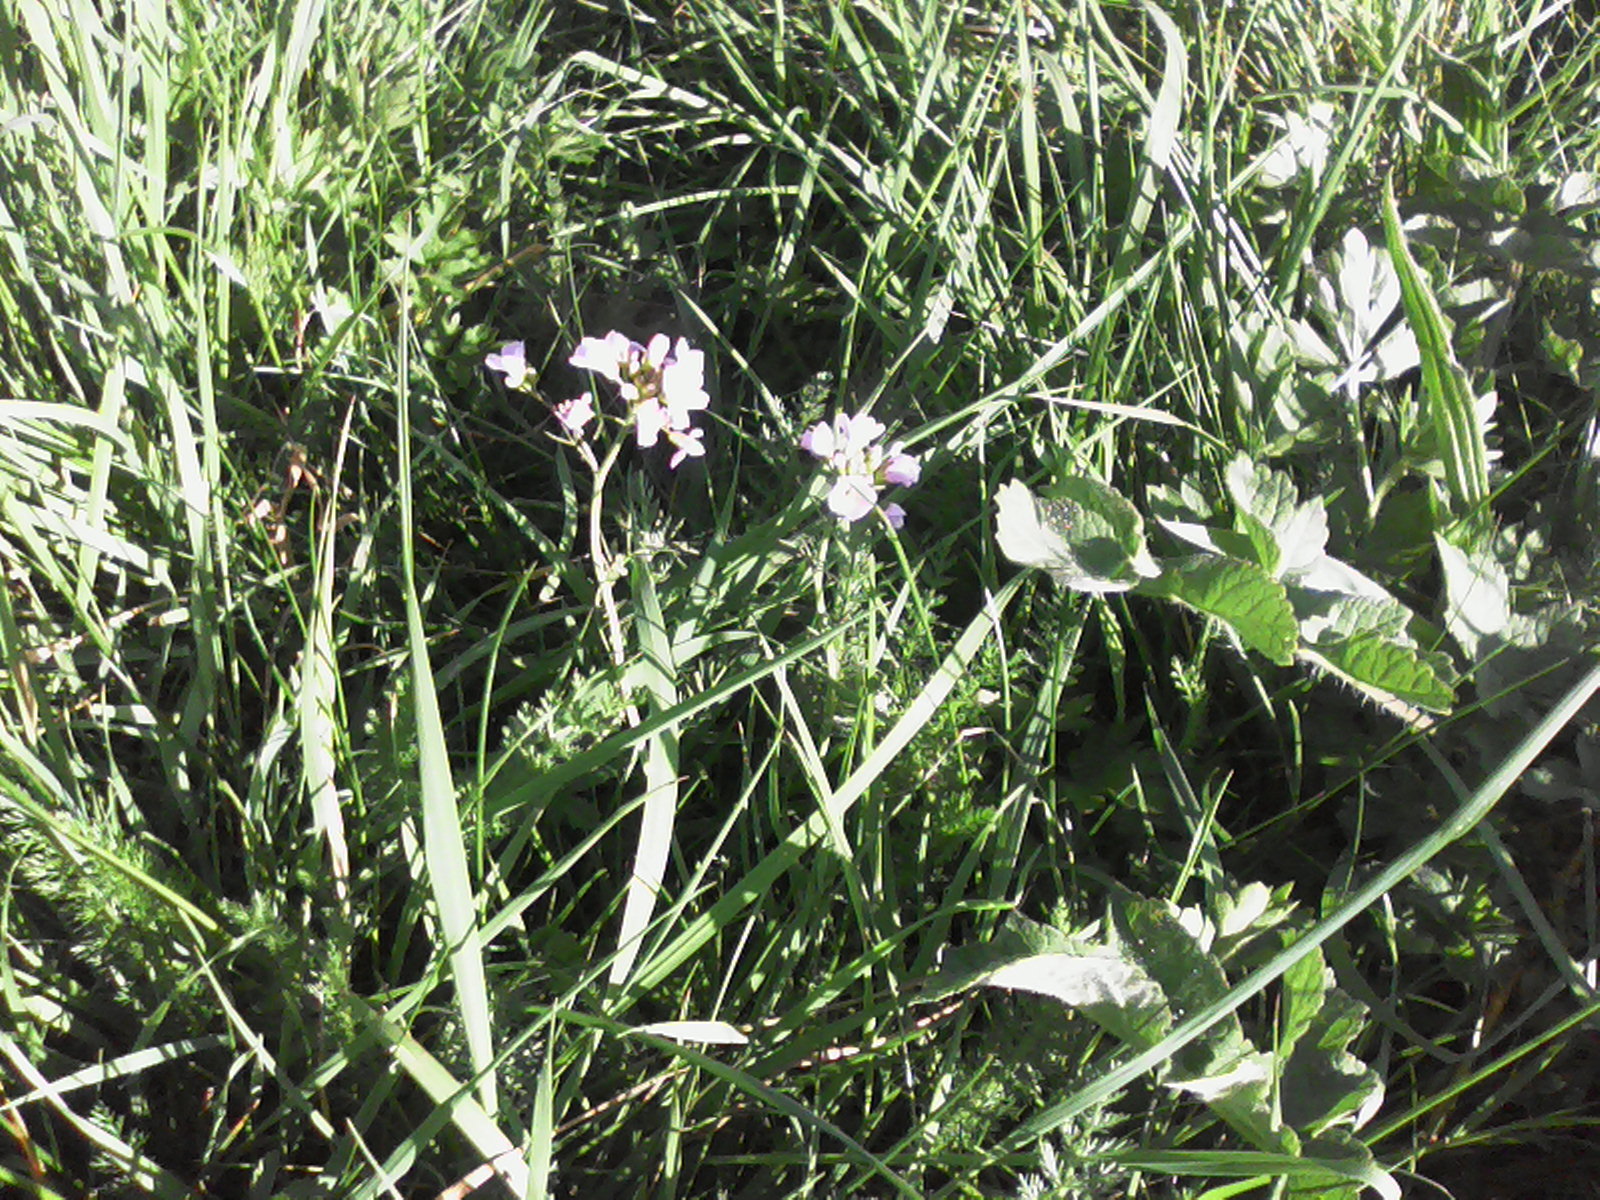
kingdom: Plantae
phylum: Tracheophyta
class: Magnoliopsida
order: Brassicales
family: Brassicaceae
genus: Cardamine
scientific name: Cardamine pratensis
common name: Cuckoo flower
